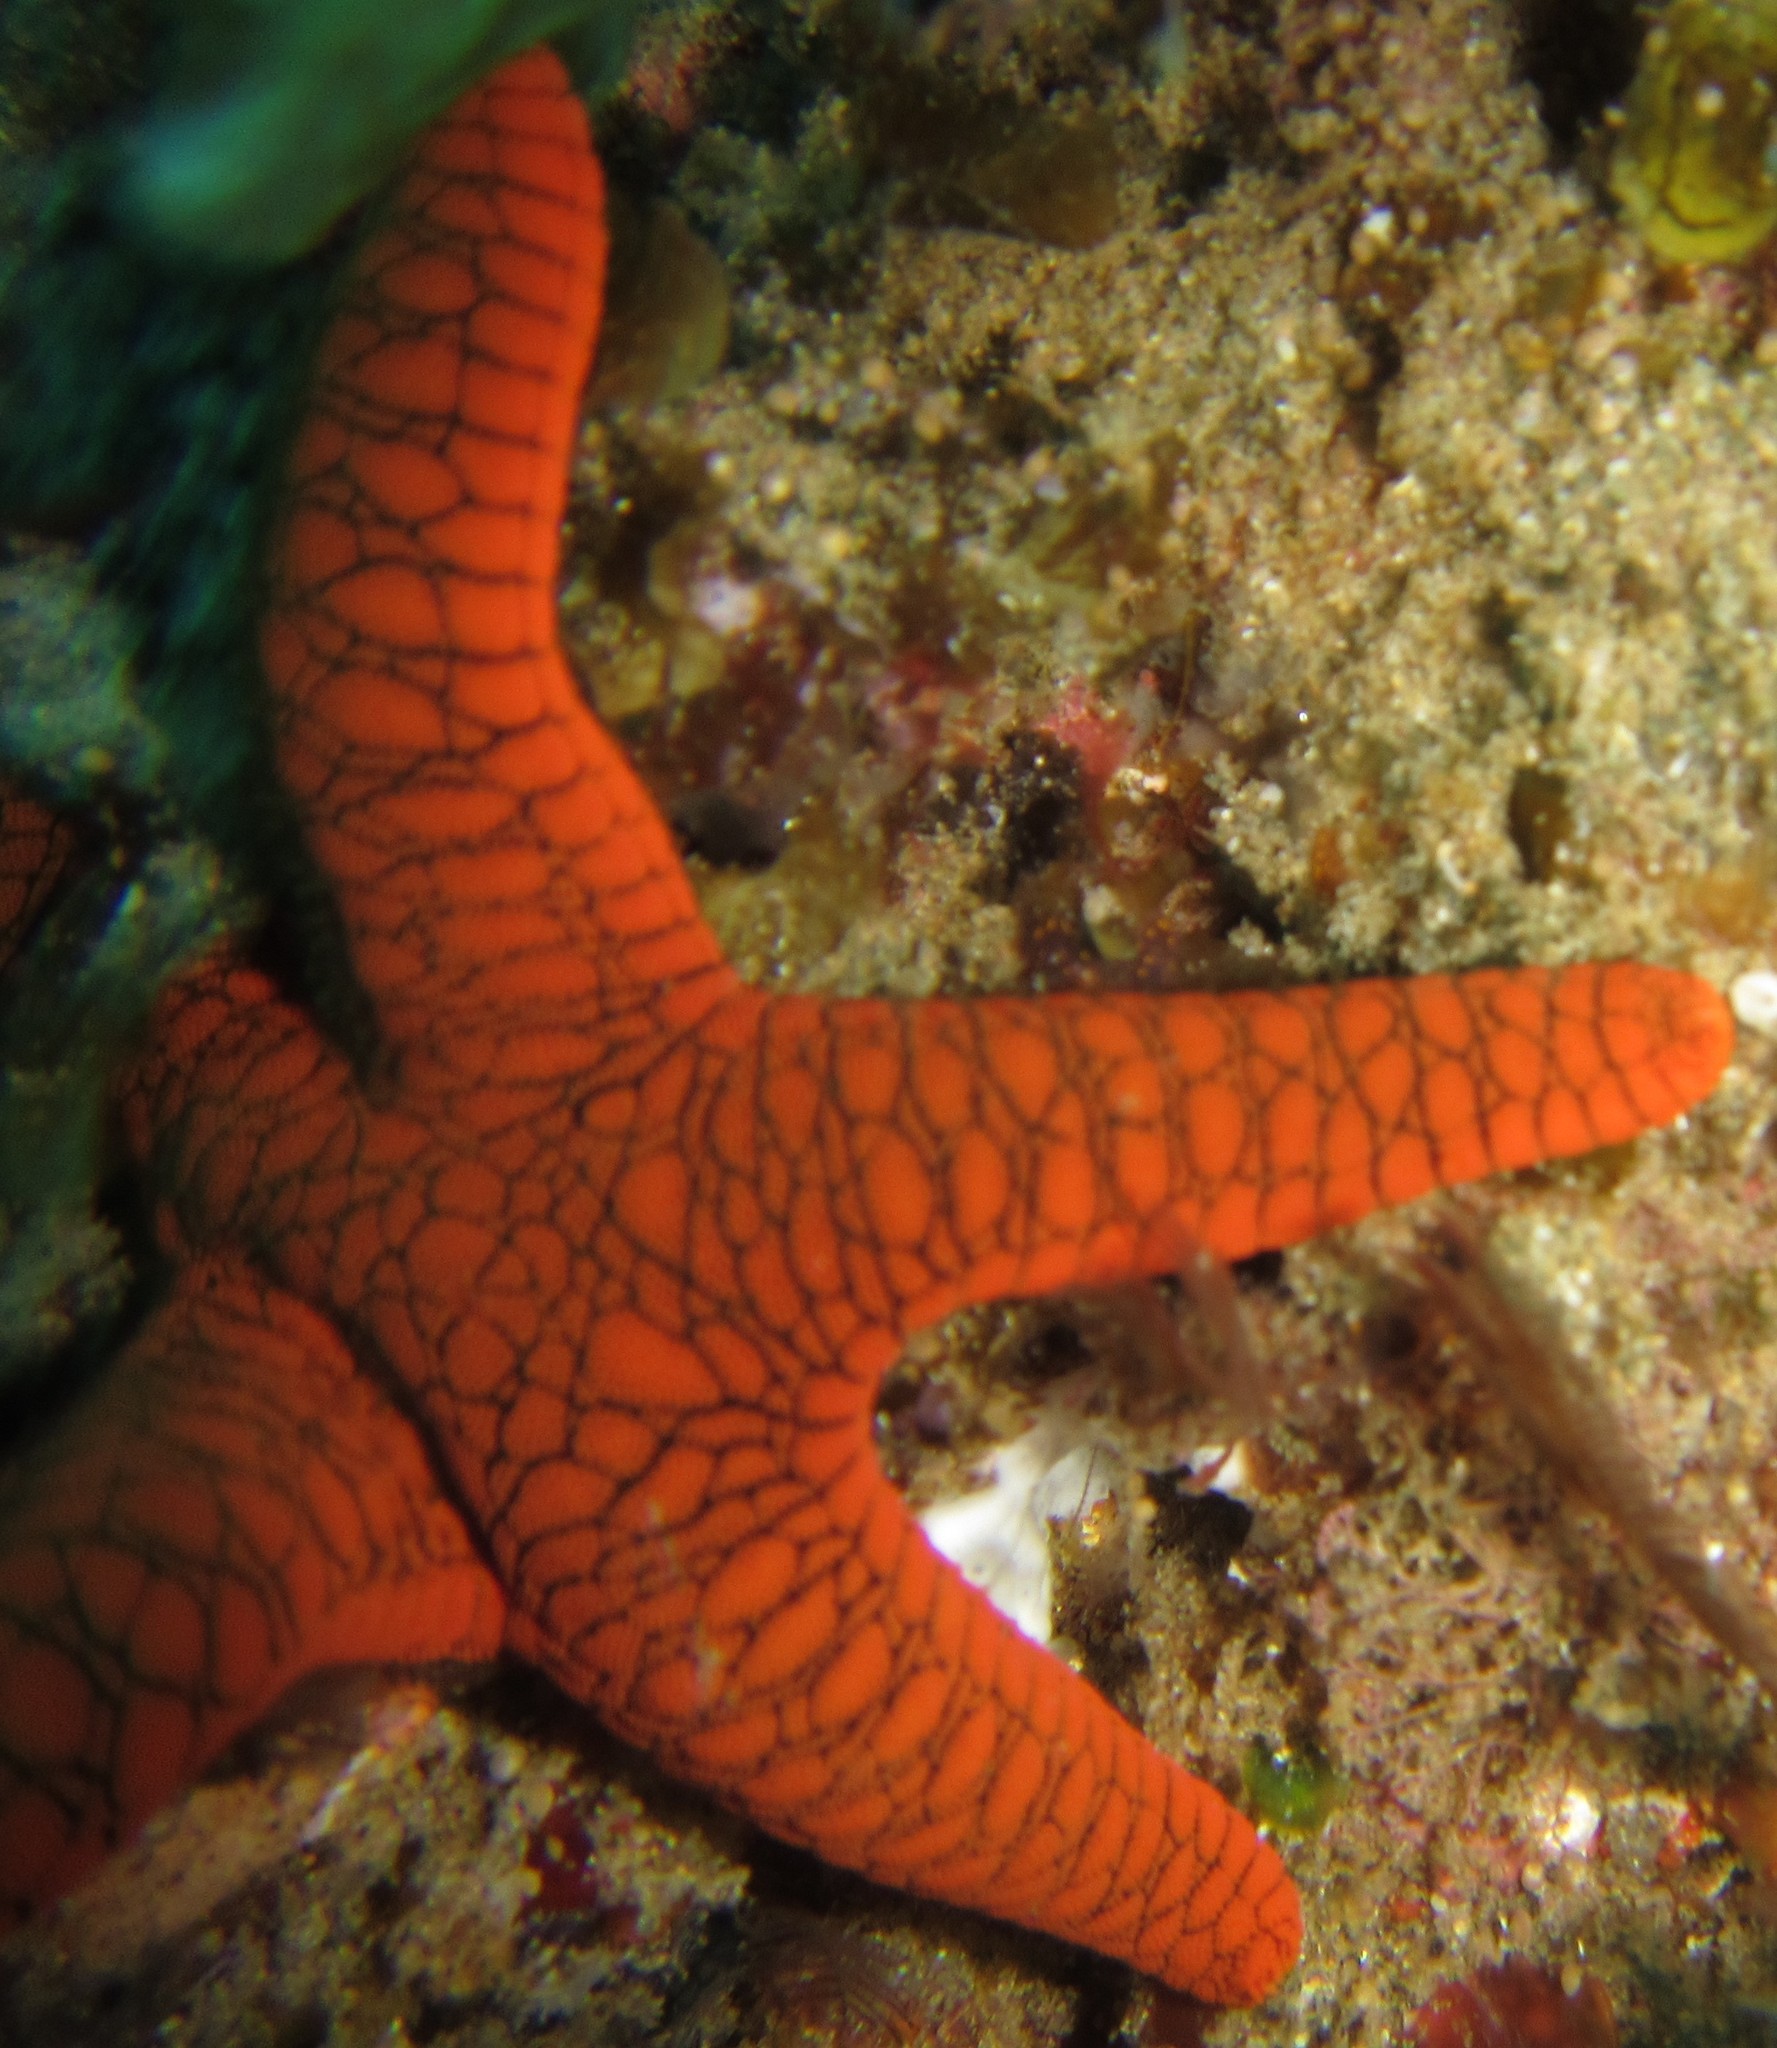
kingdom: Animalia
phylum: Echinodermata
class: Asteroidea
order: Valvatida
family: Goniasteridae
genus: Fromia
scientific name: Fromia indica
